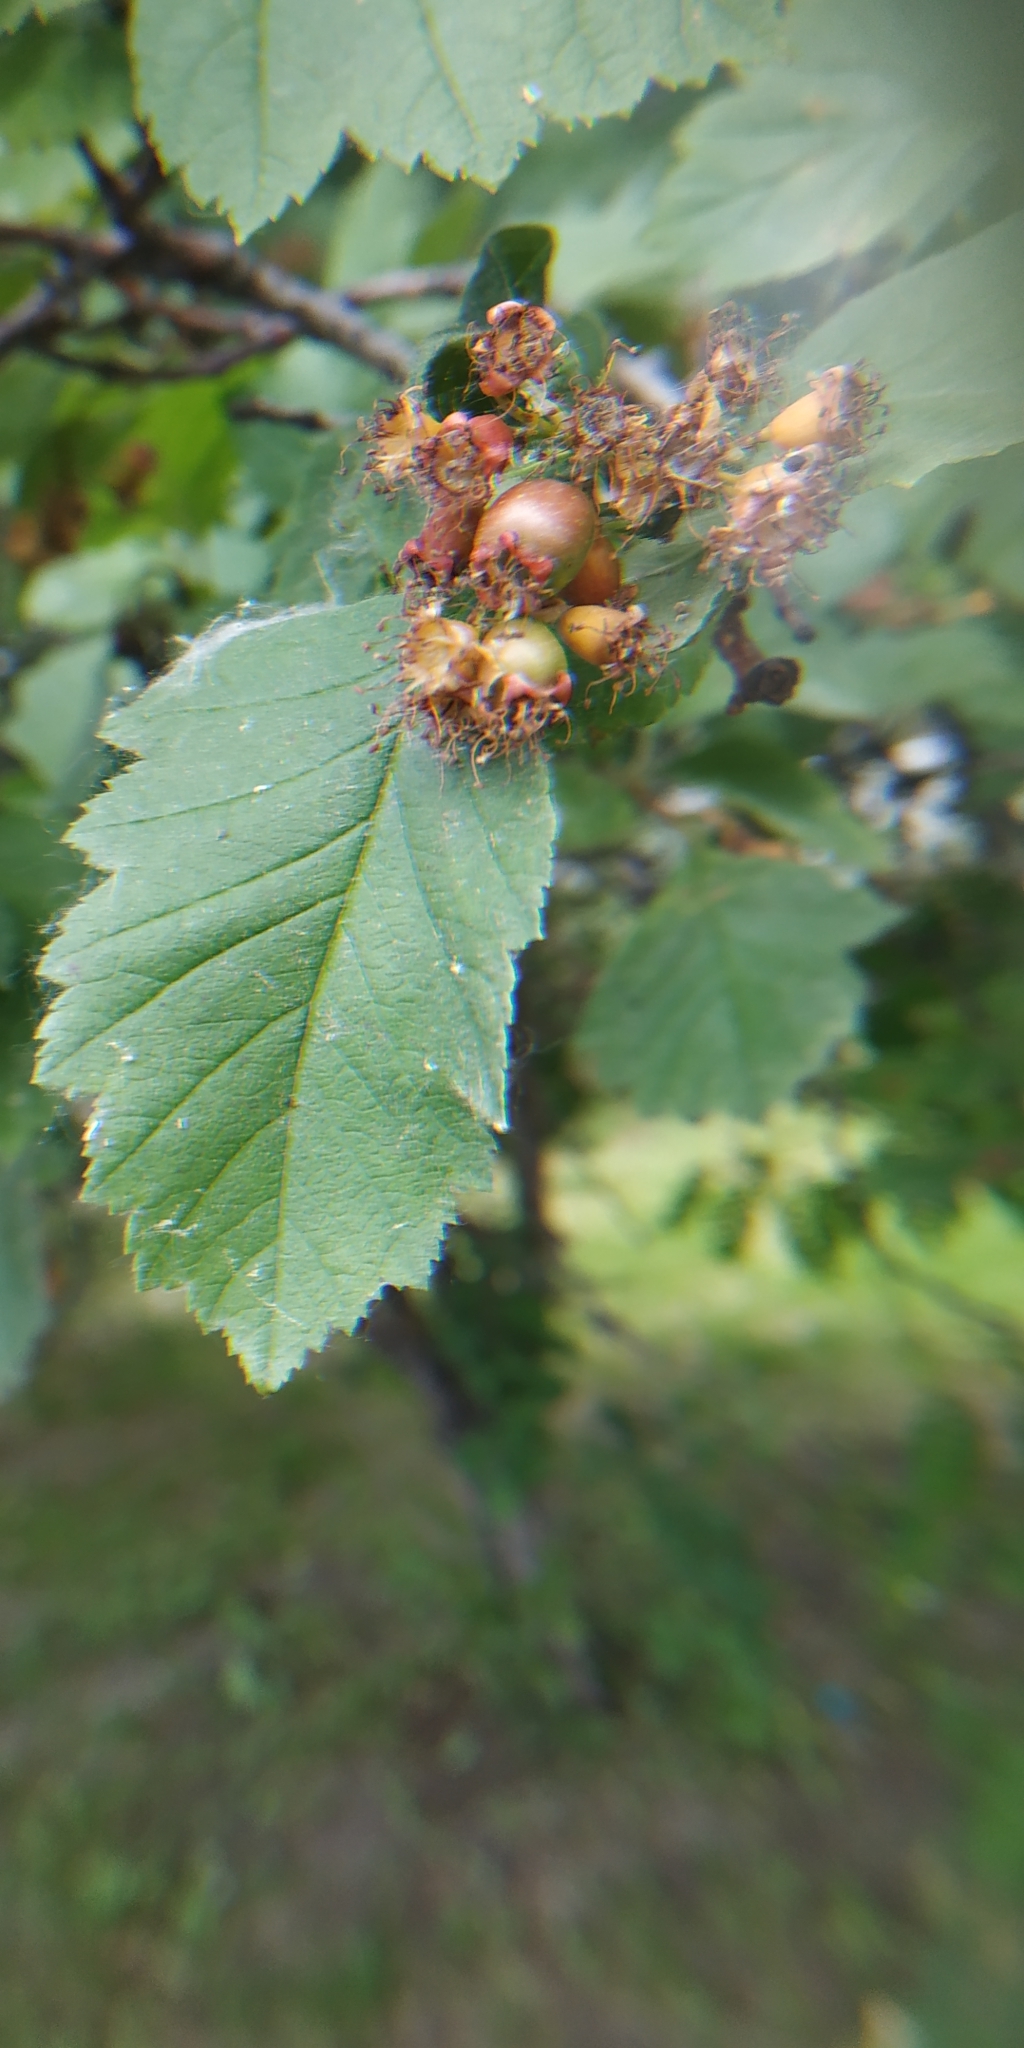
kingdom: Plantae
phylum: Tracheophyta
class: Magnoliopsida
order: Rosales
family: Rosaceae
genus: Crataegus
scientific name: Crataegus sanguinea
